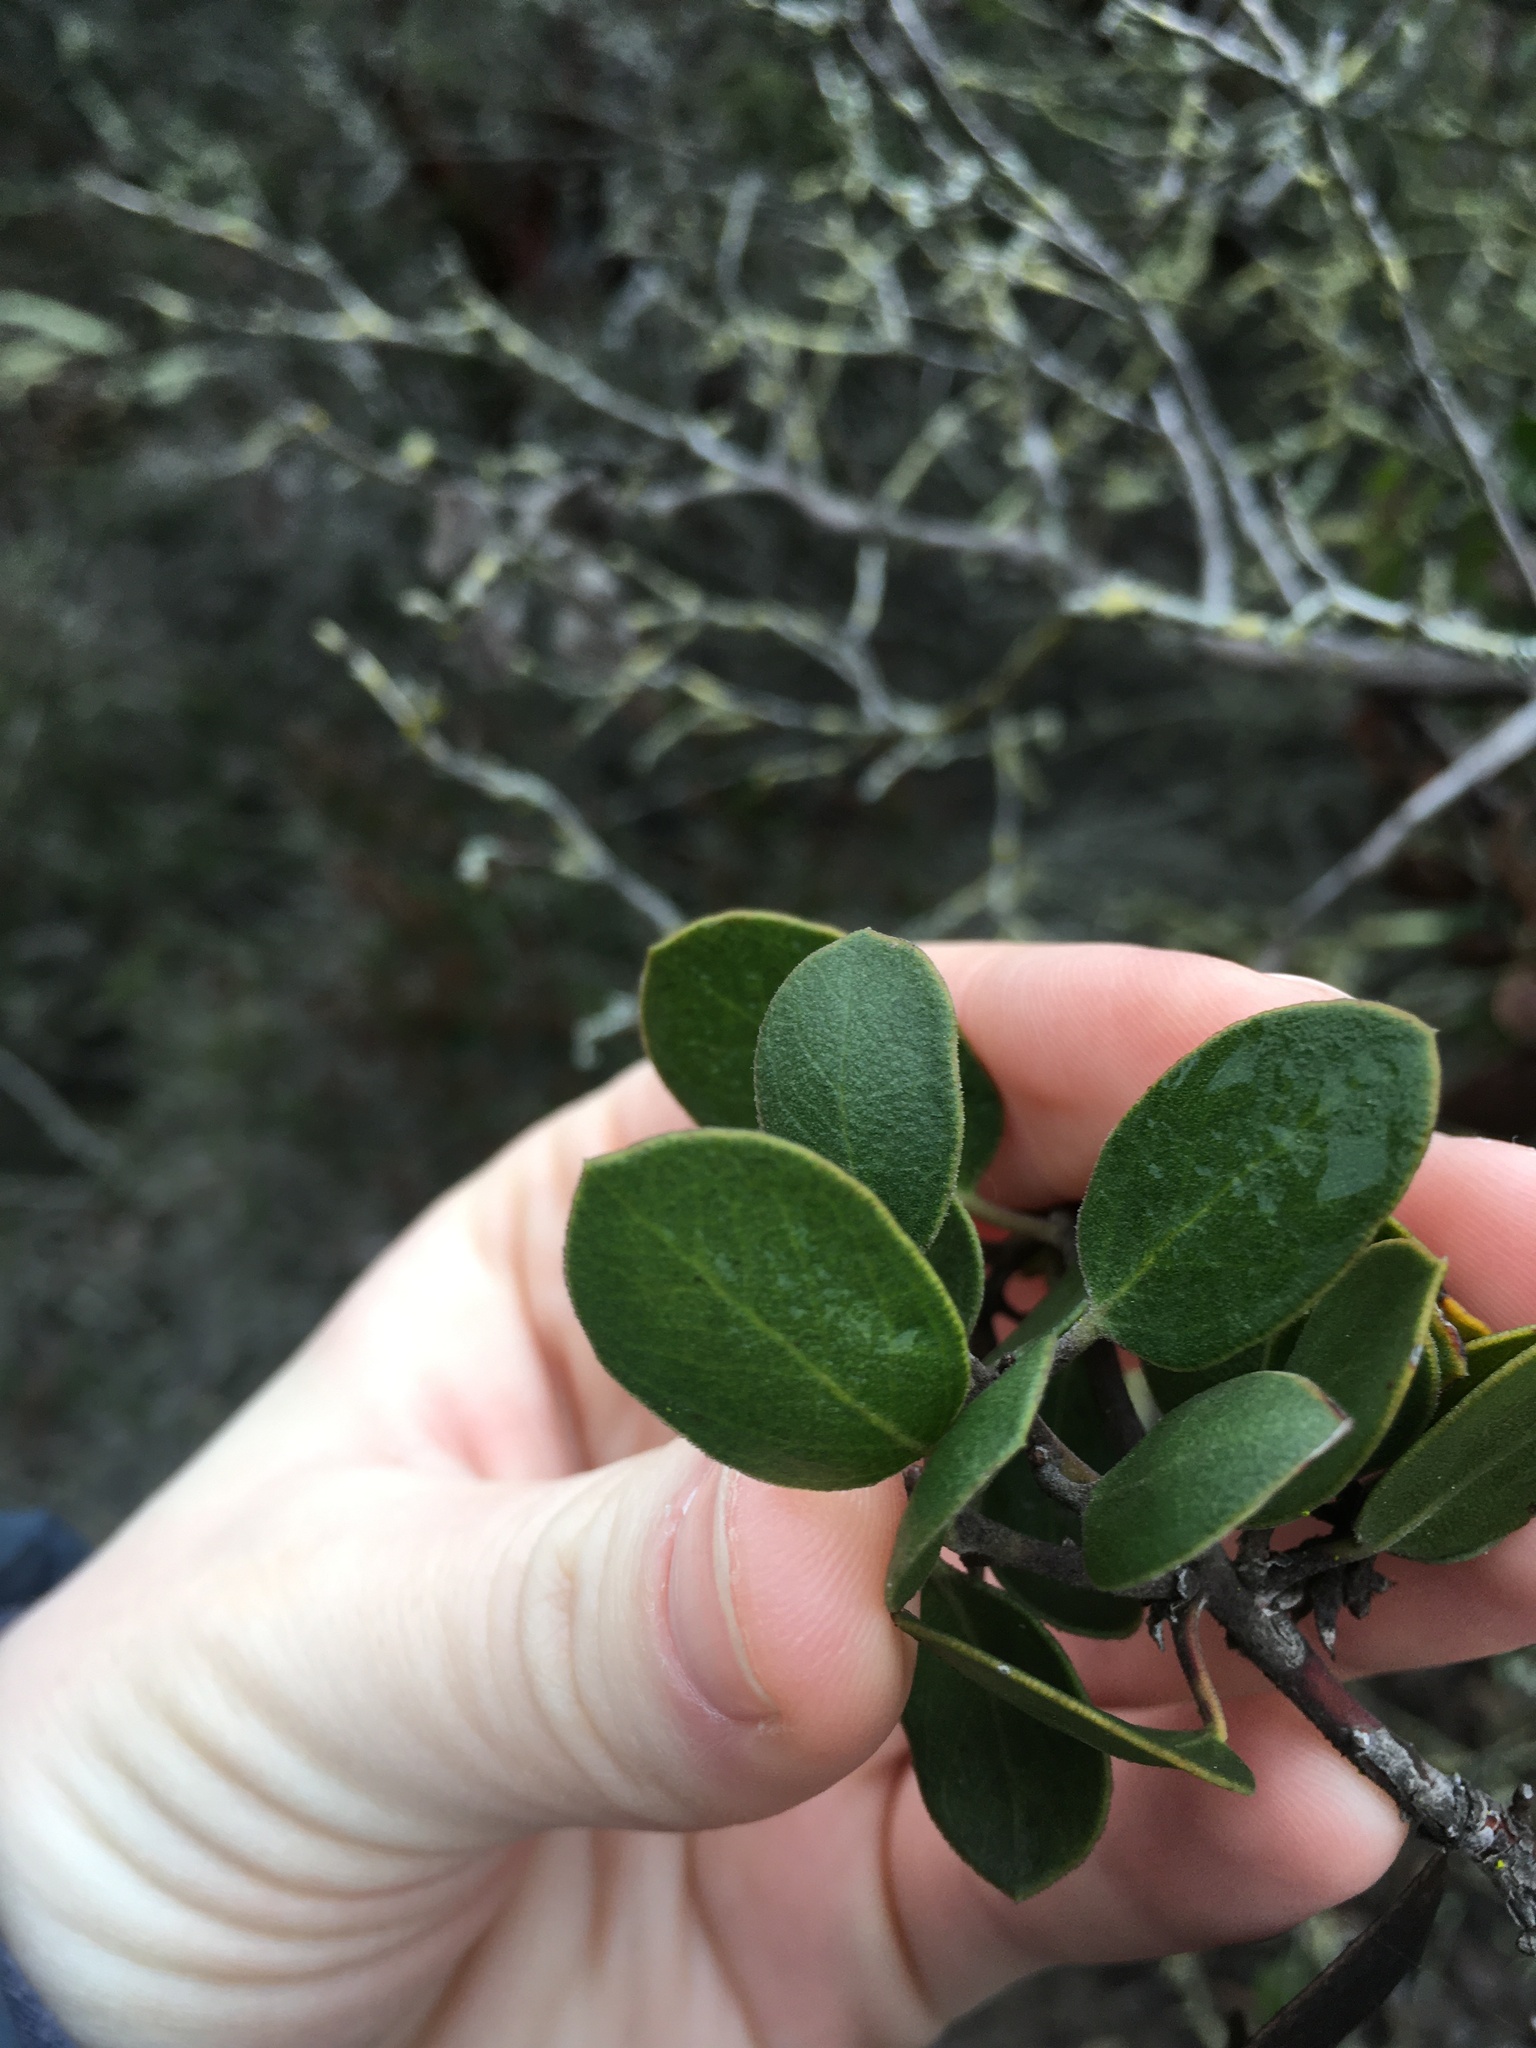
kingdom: Plantae
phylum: Tracheophyta
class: Magnoliopsida
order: Ericales
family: Ericaceae
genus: Arctostaphylos
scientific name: Arctostaphylos rudis
